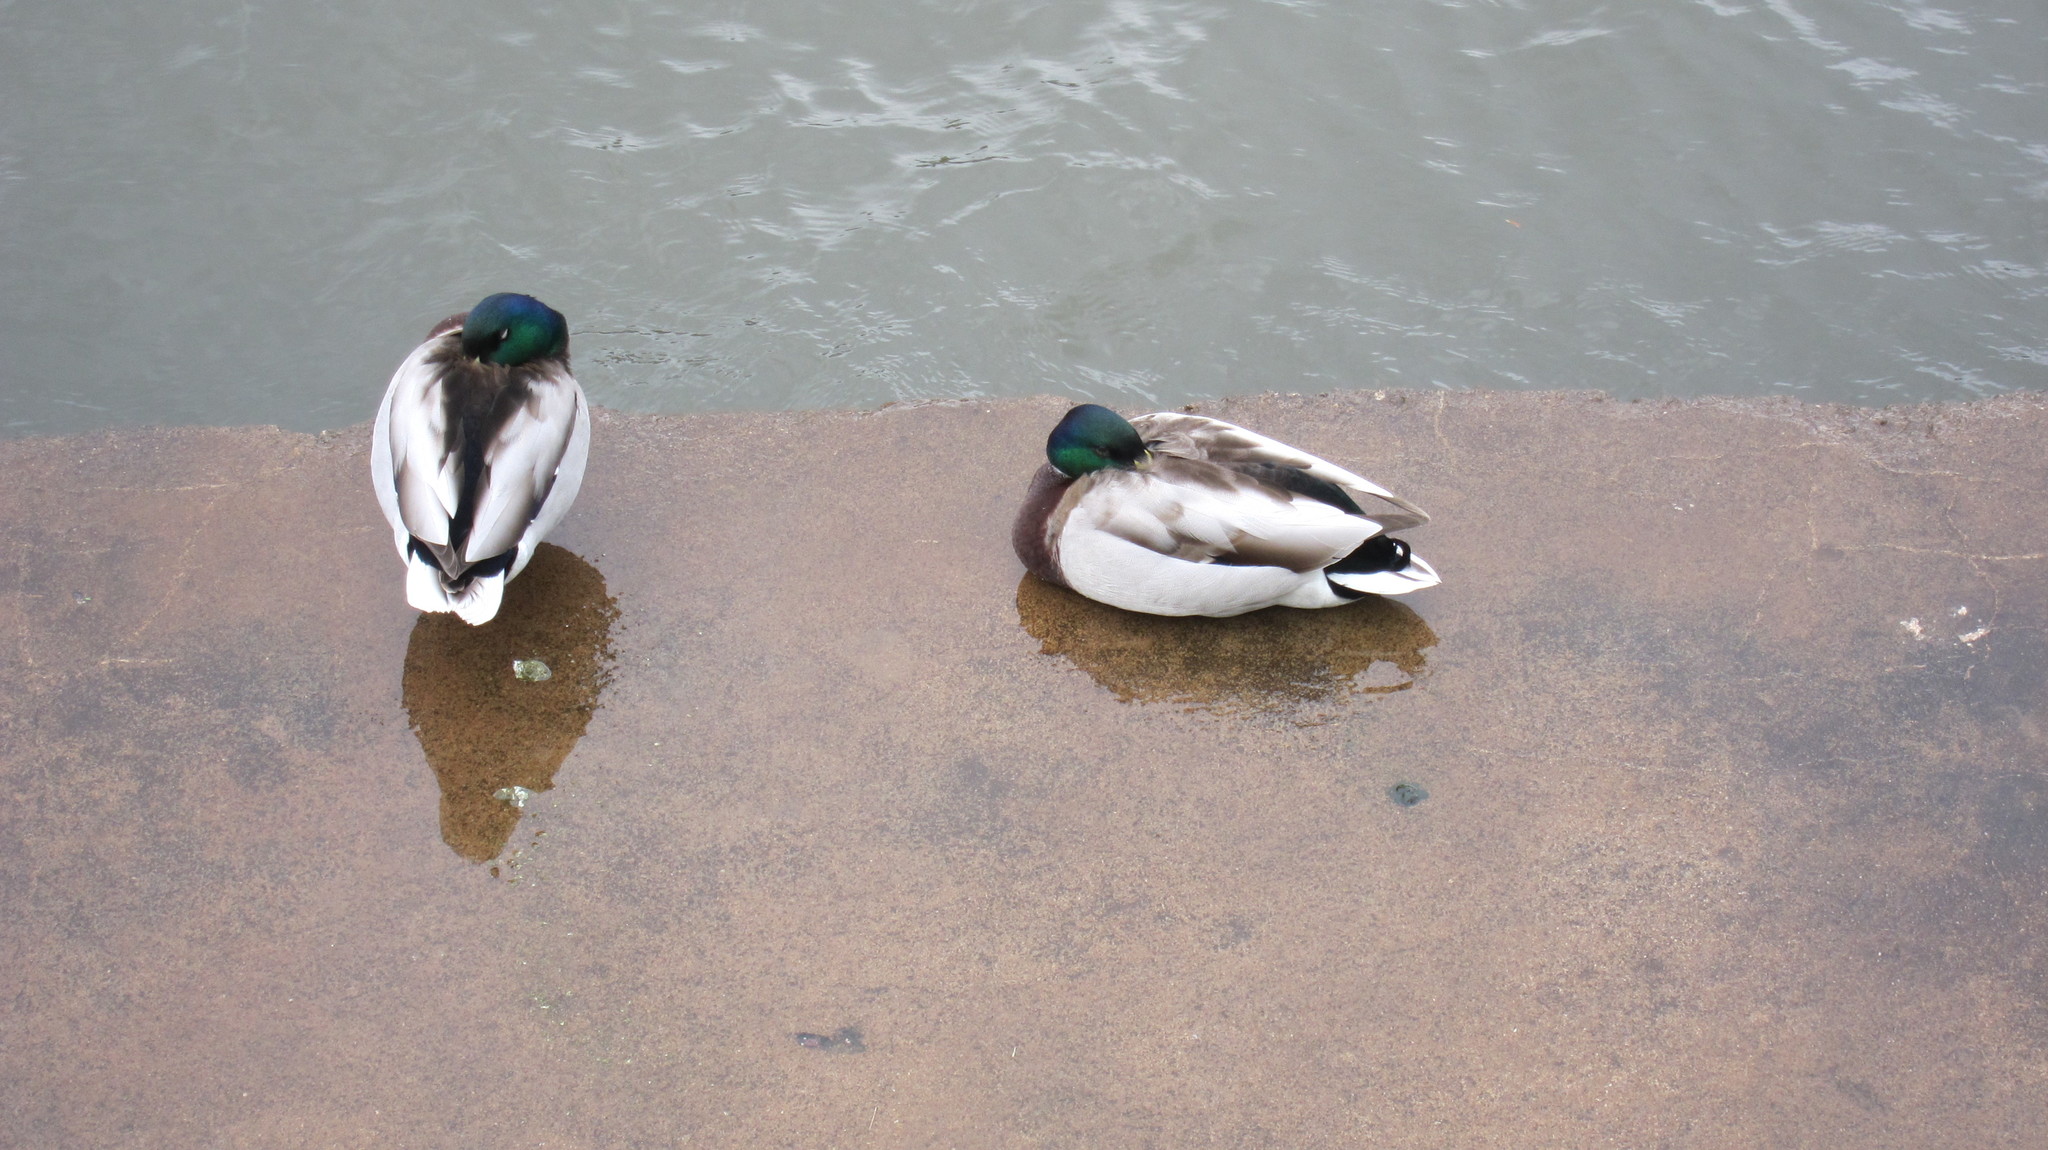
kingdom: Animalia
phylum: Chordata
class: Aves
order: Anseriformes
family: Anatidae
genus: Anas
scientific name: Anas platyrhynchos
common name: Mallard
